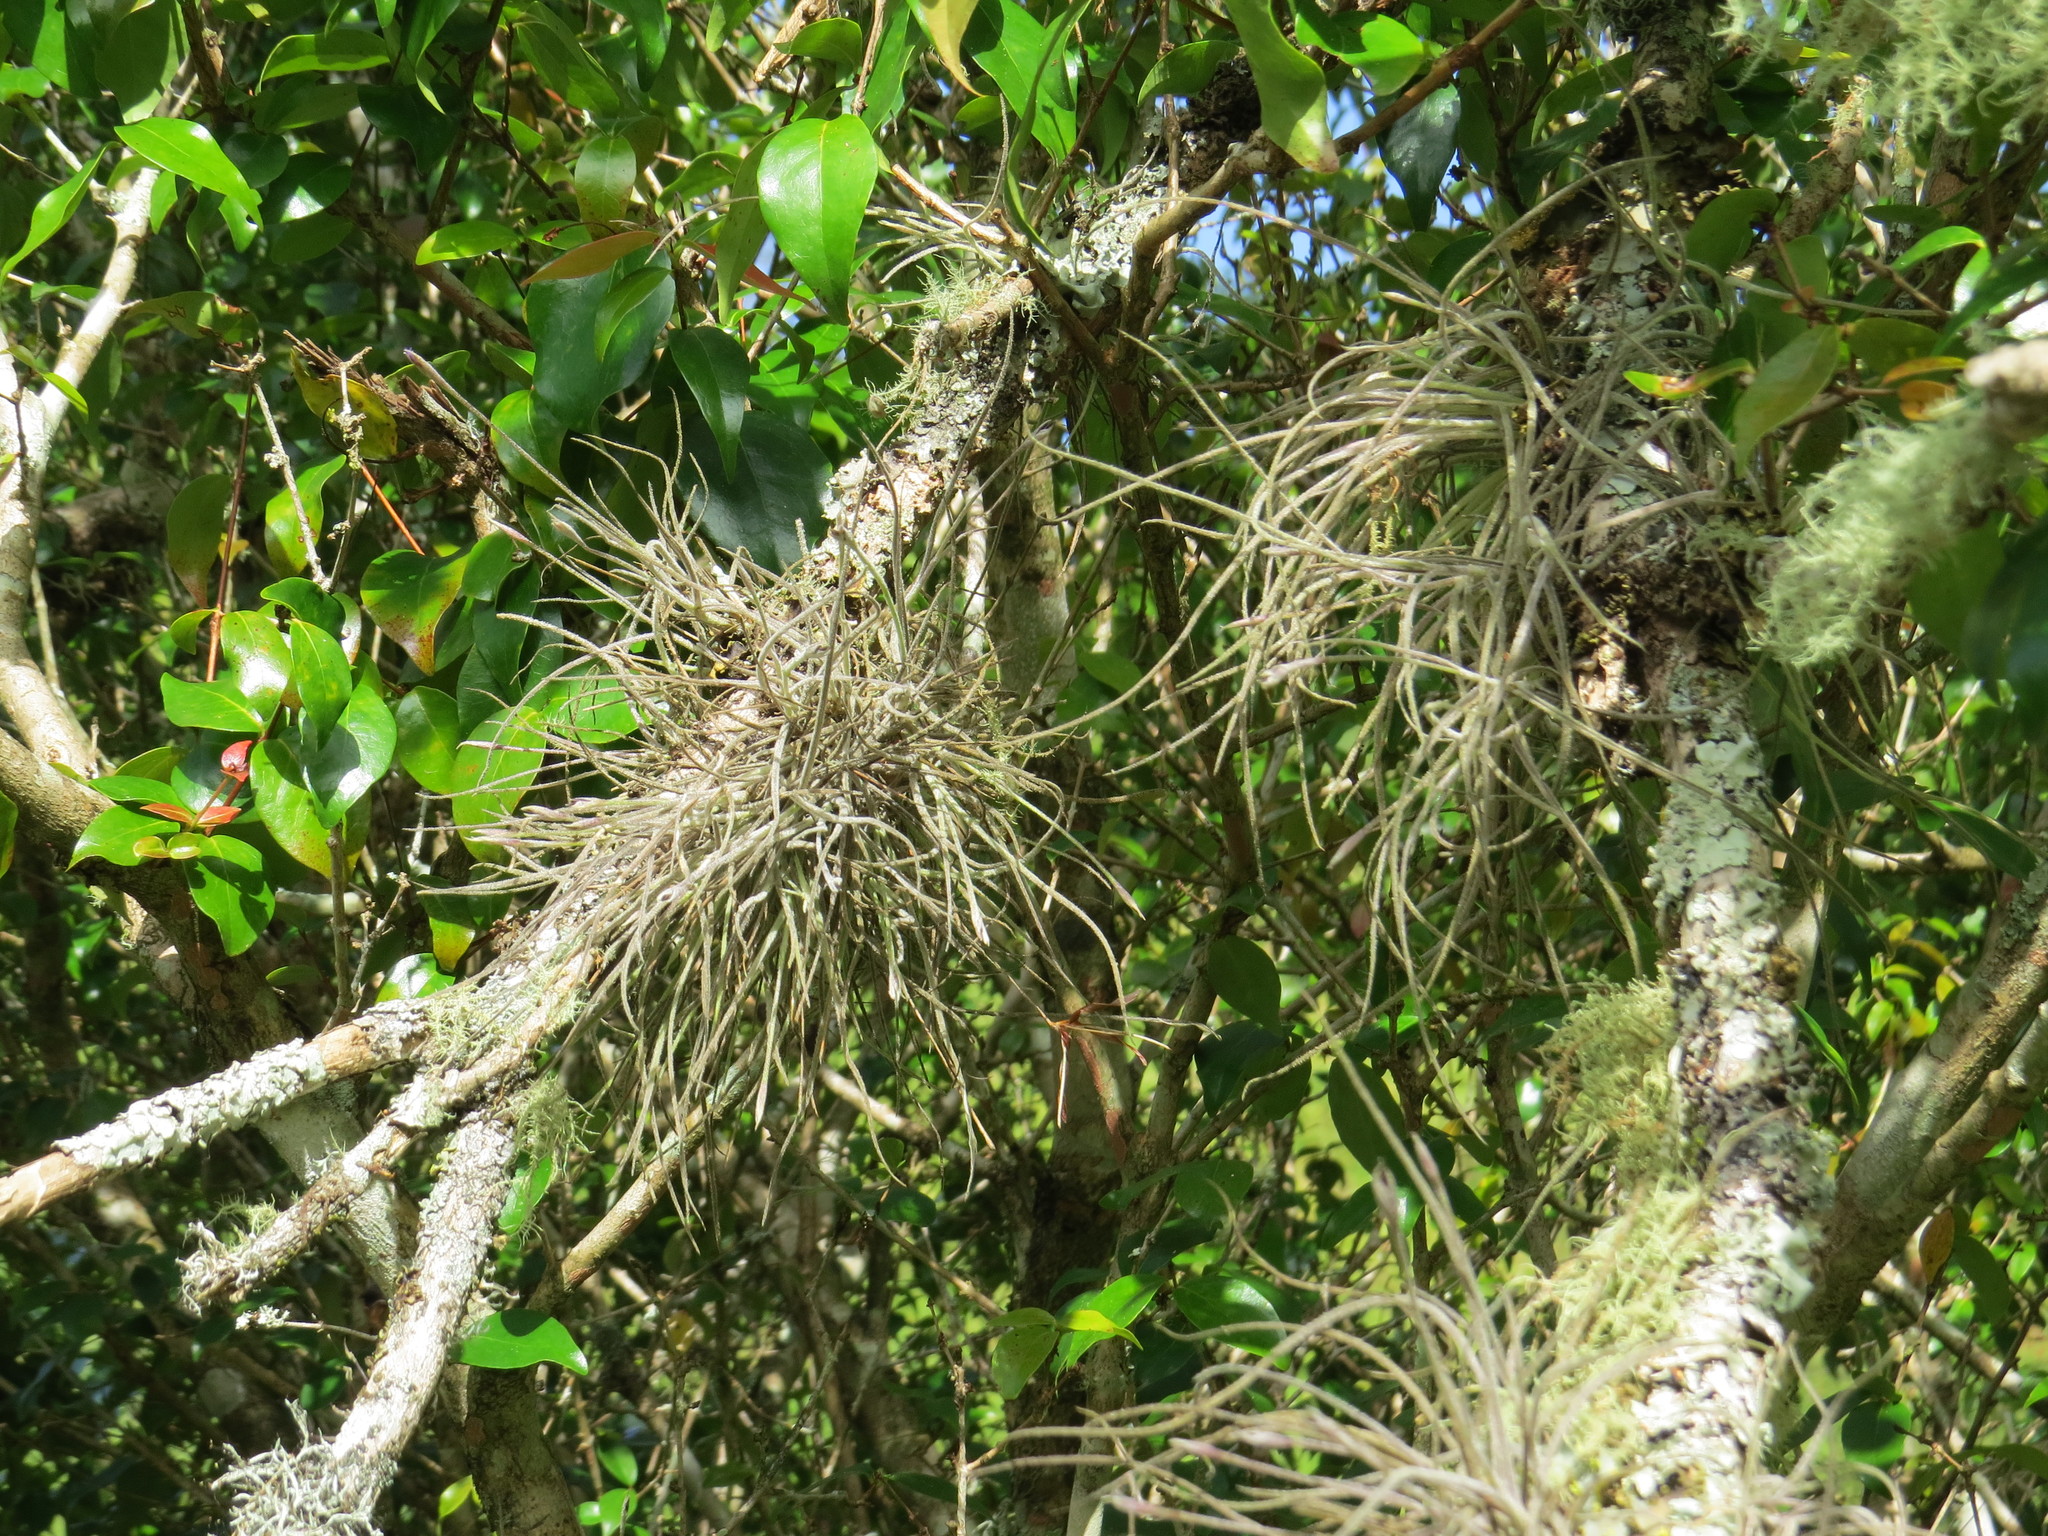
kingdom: Plantae
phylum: Tracheophyta
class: Liliopsida
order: Poales
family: Bromeliaceae
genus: Tillandsia
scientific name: Tillandsia recurvata
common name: Small ballmoss
